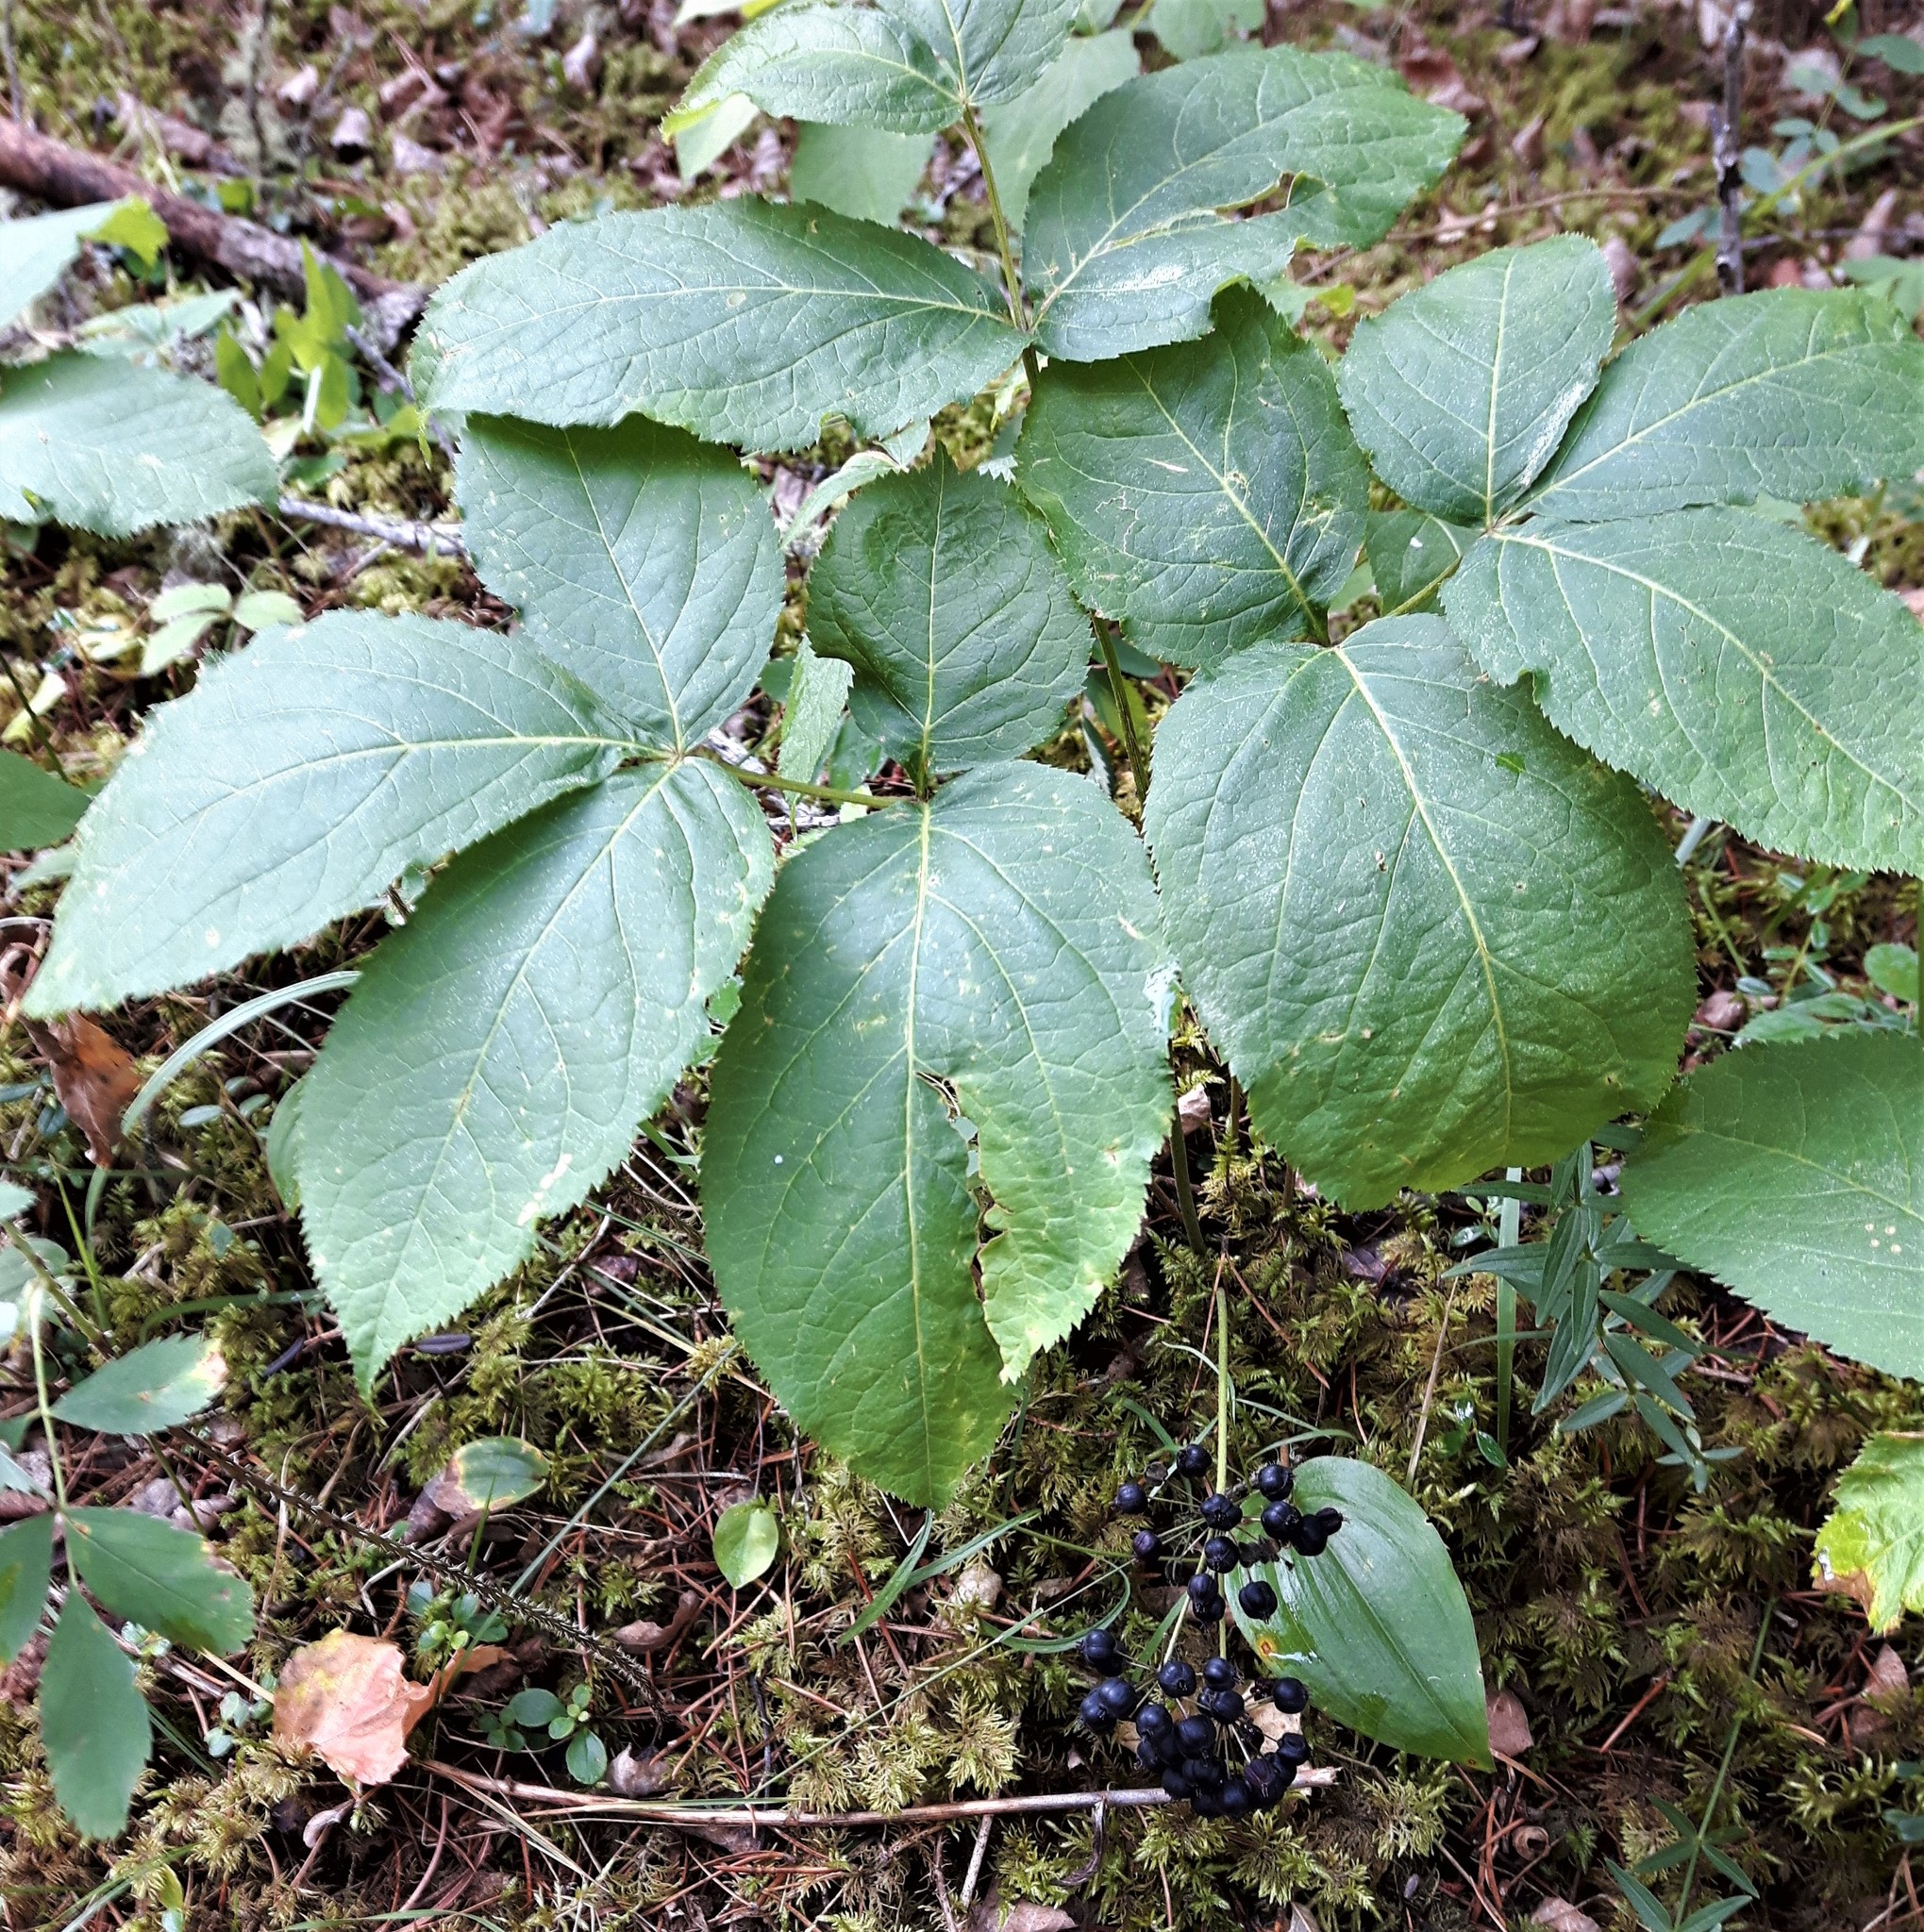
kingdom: Plantae
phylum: Tracheophyta
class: Magnoliopsida
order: Apiales
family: Araliaceae
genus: Aralia
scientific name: Aralia nudicaulis
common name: Wild sarsaparilla
